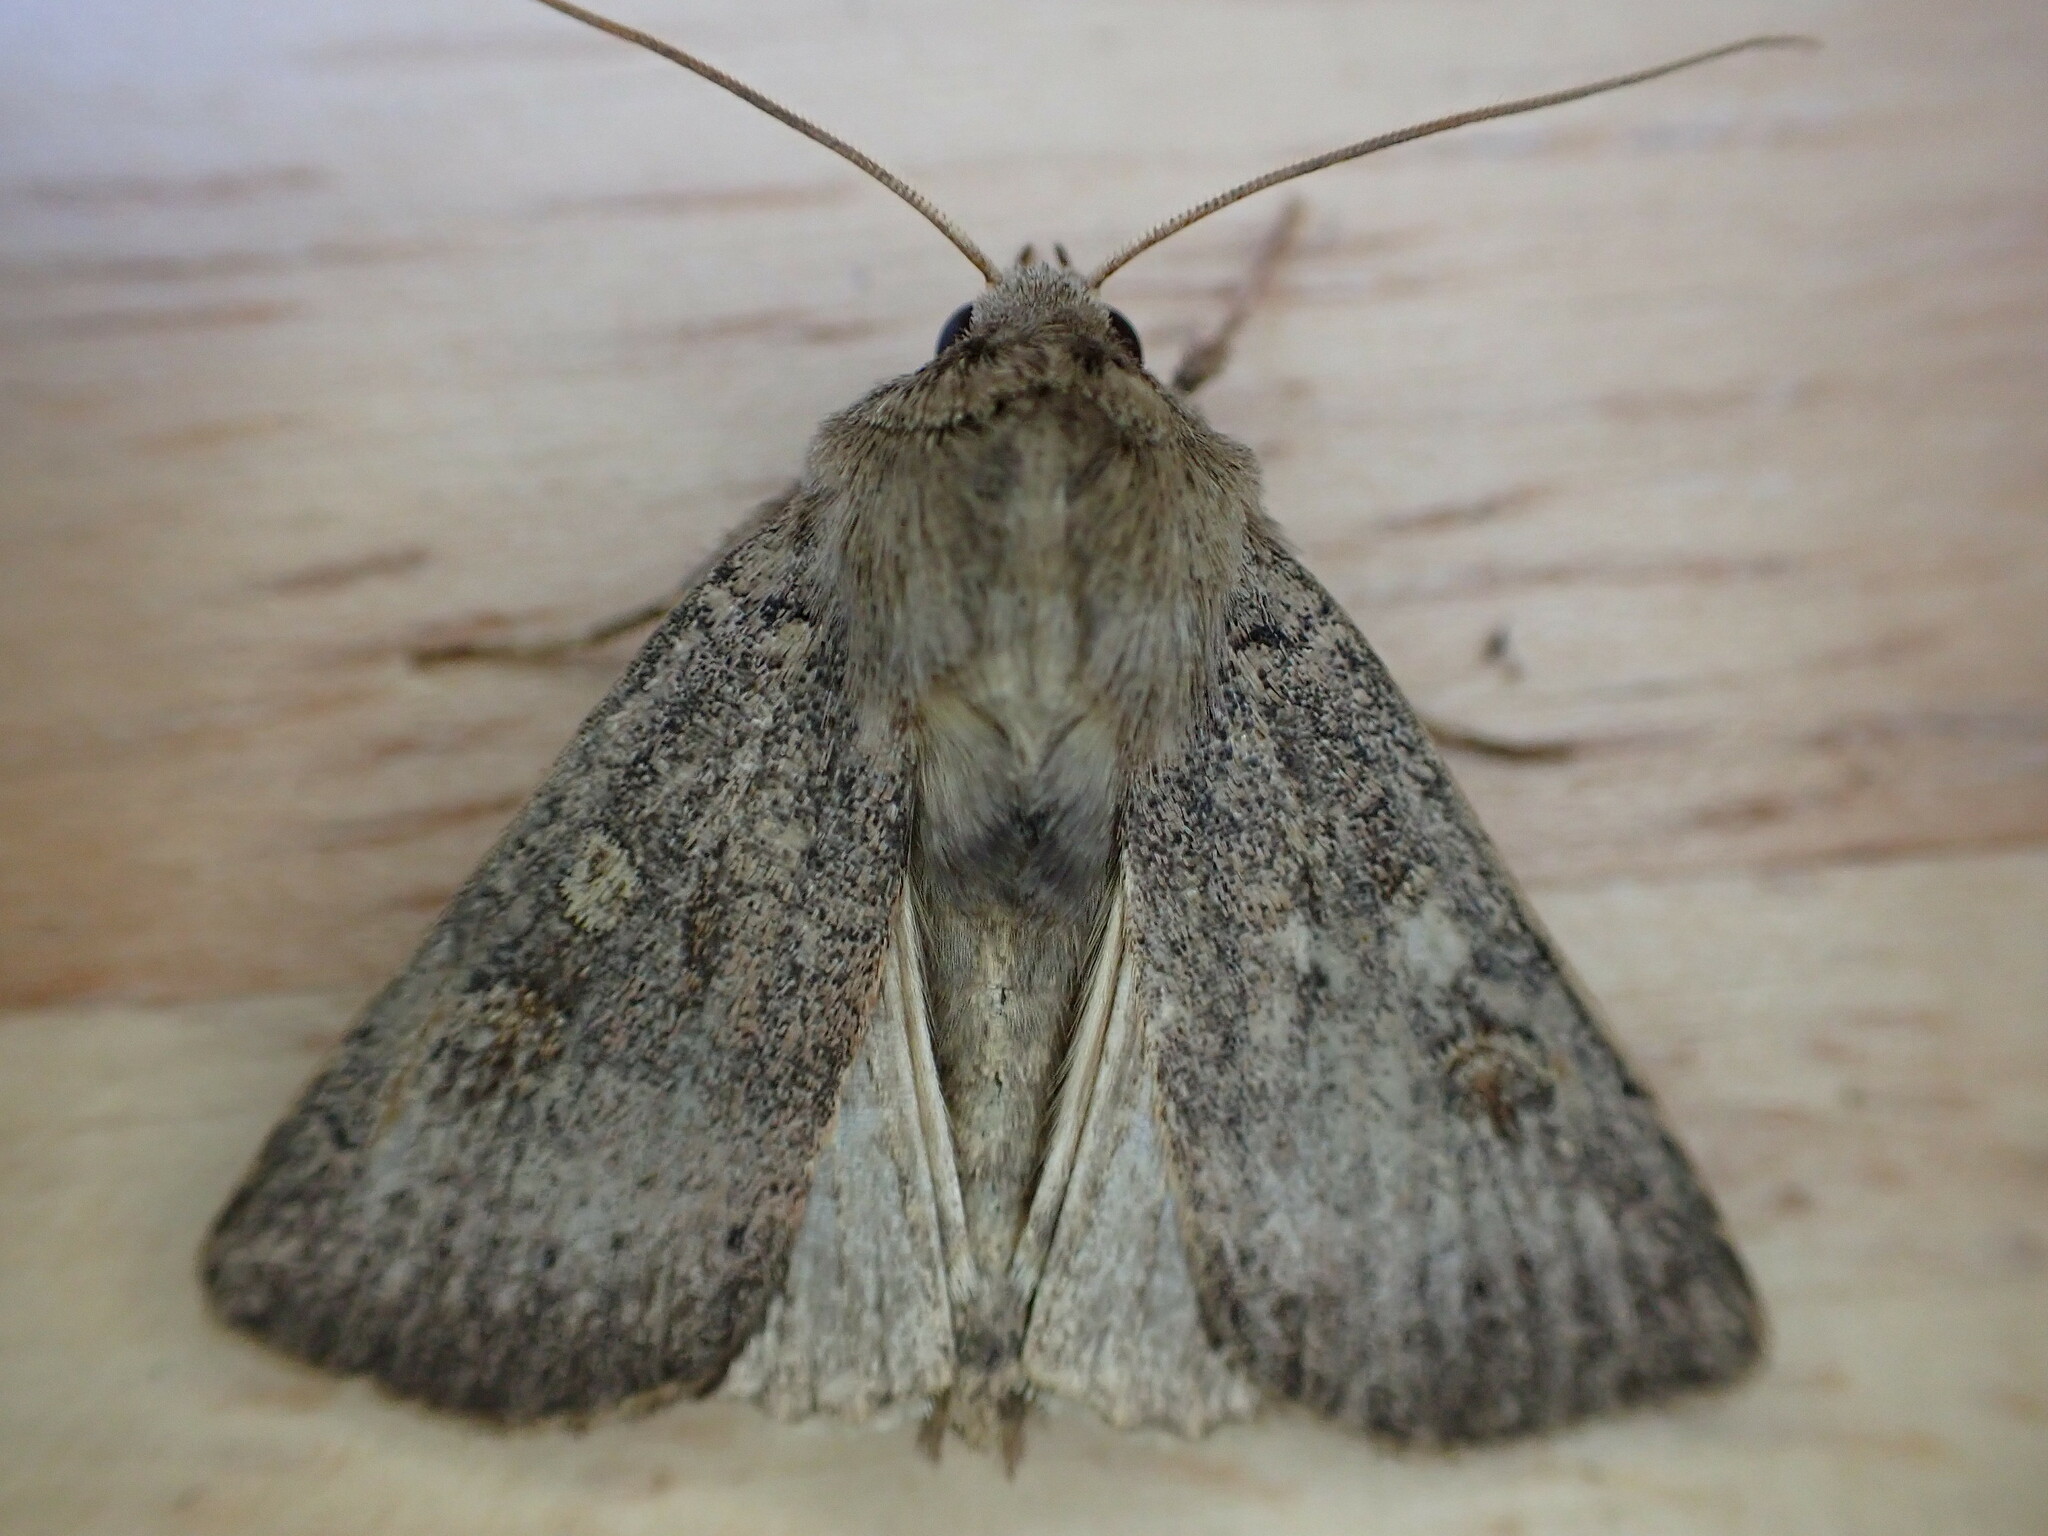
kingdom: Animalia
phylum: Arthropoda
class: Insecta
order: Lepidoptera
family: Noctuidae
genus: Xestia
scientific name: Xestia xanthographa
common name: Square-spot rustic
